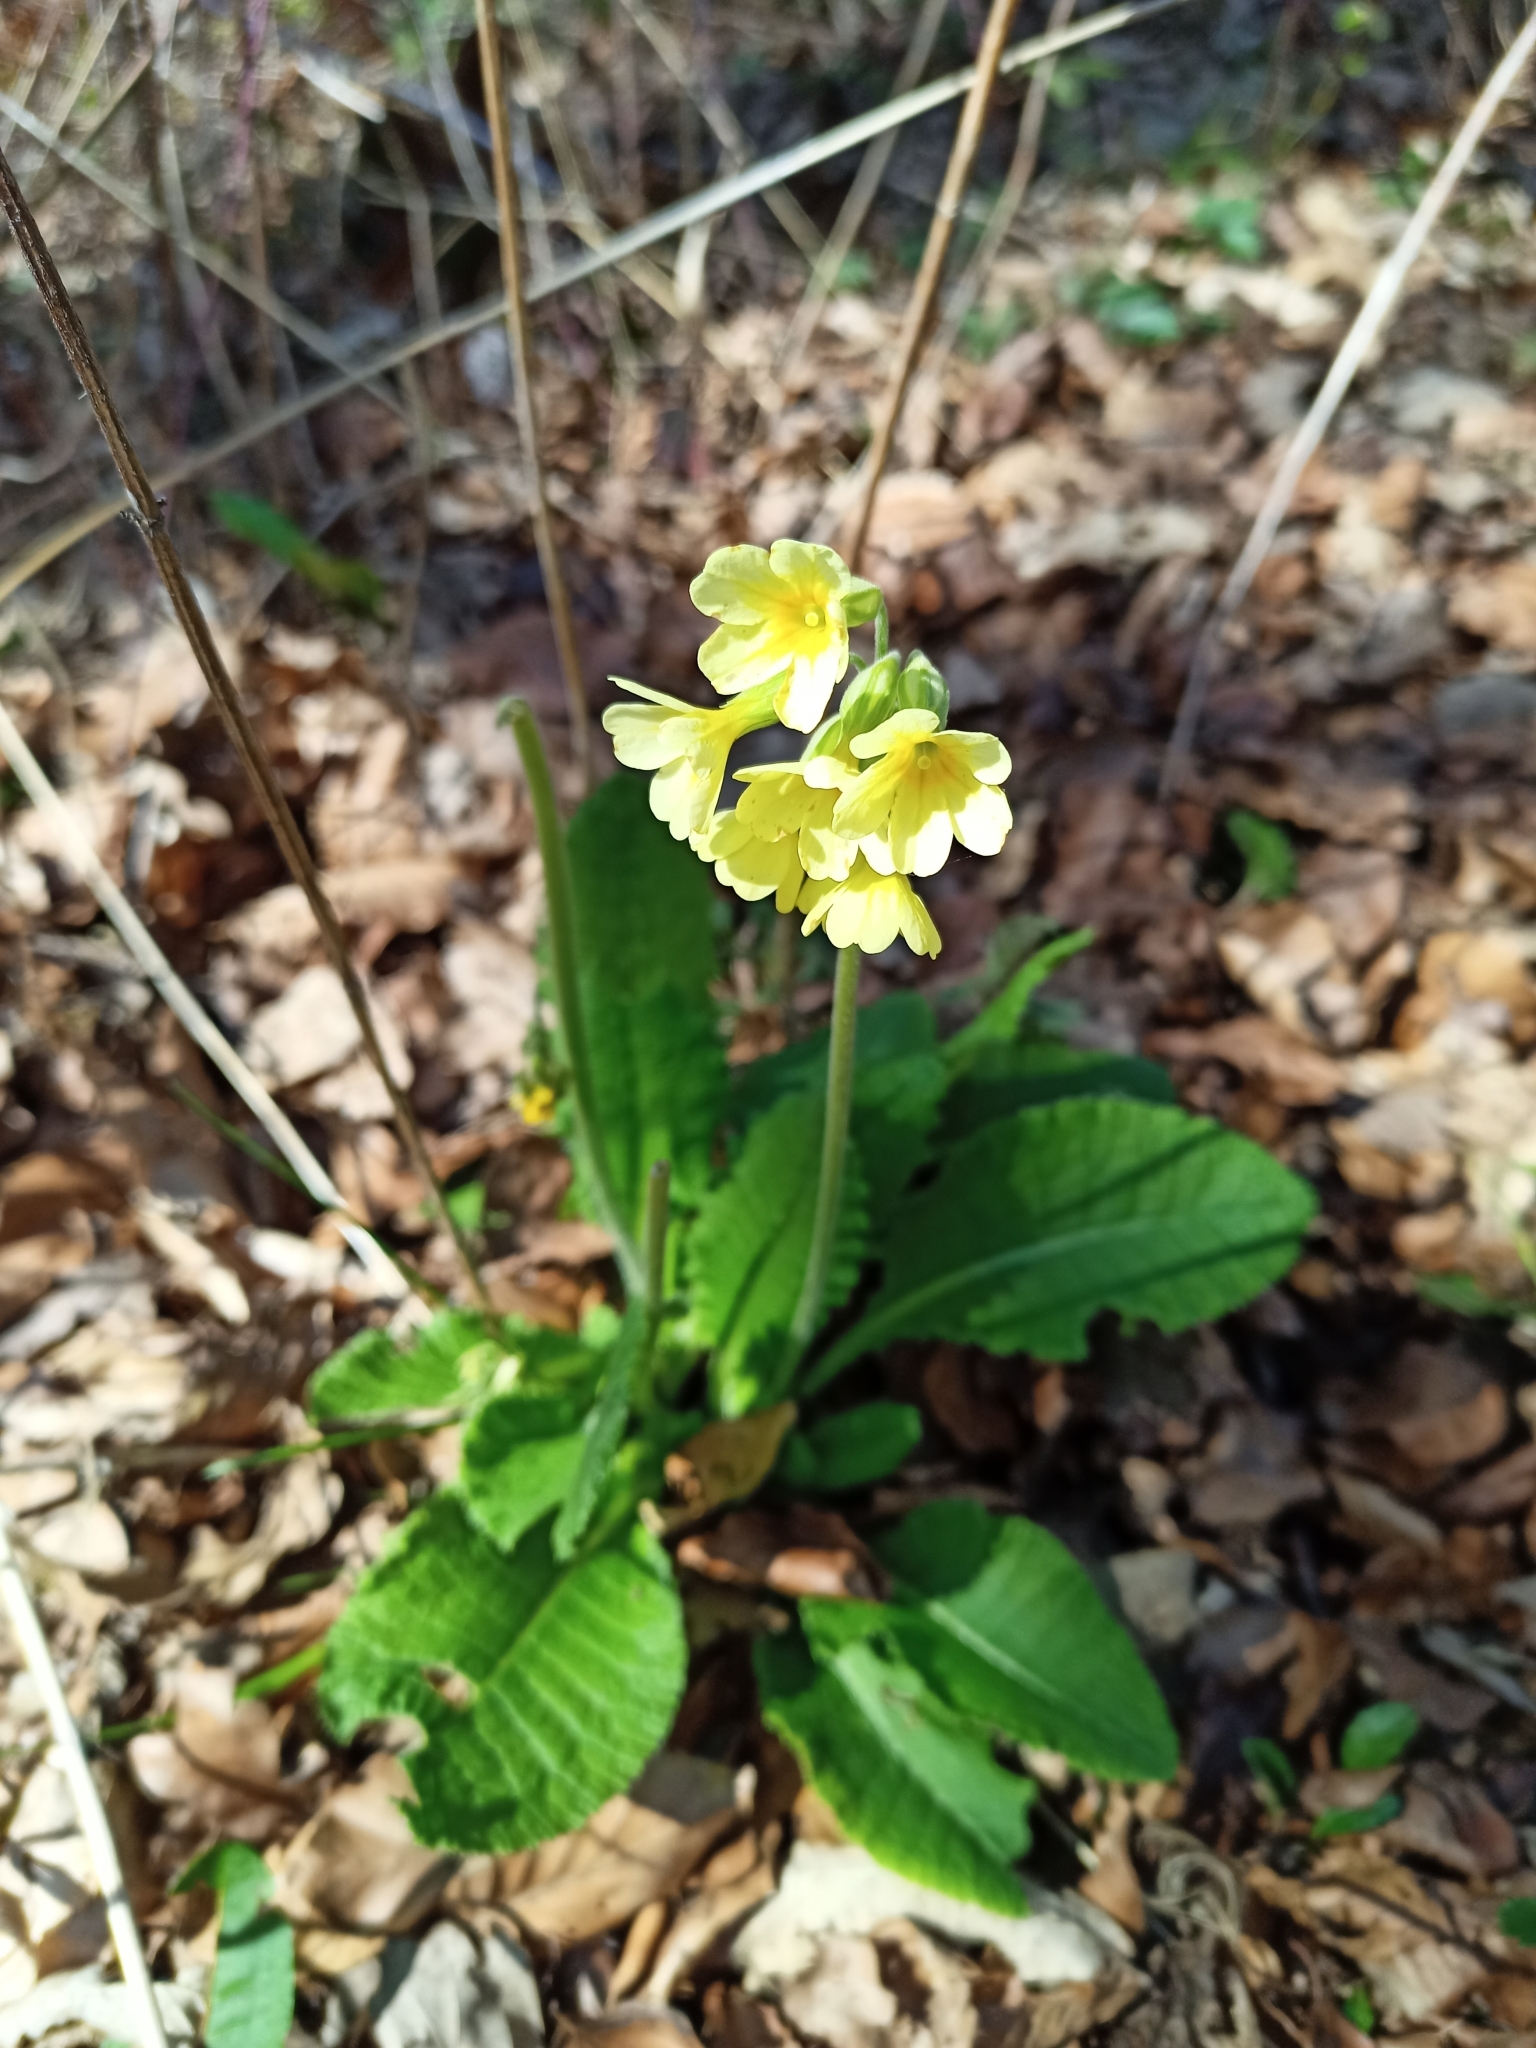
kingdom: Plantae
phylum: Tracheophyta
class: Magnoliopsida
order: Ericales
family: Primulaceae
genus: Primula
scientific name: Primula elatior
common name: Oxlip
